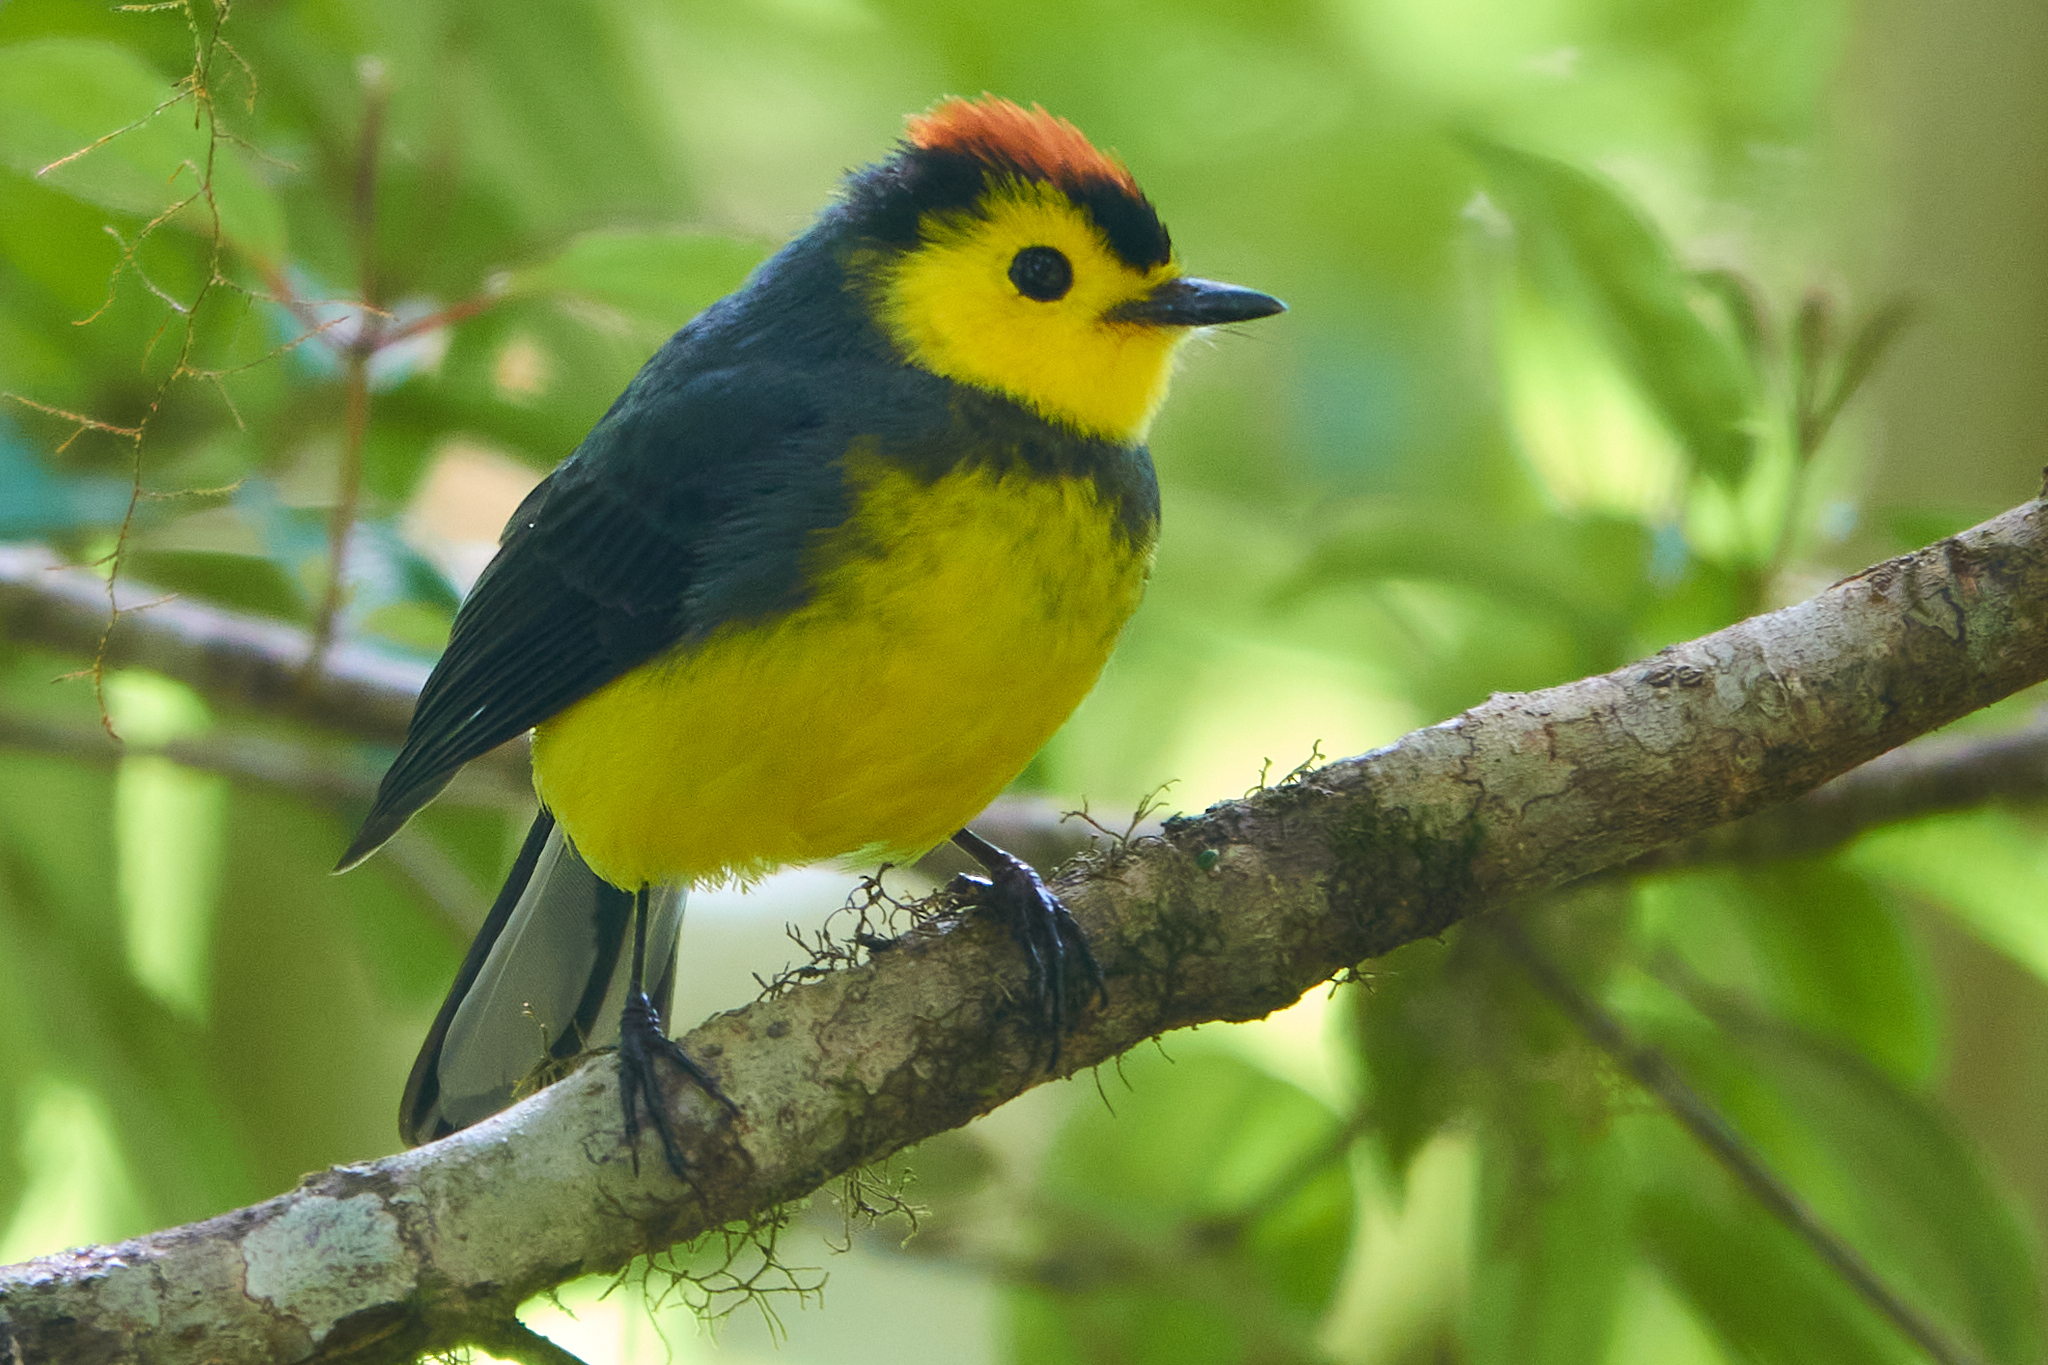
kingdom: Animalia
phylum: Chordata
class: Aves
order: Passeriformes
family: Parulidae
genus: Myioborus
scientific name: Myioborus torquatus
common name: Collared whitestart
